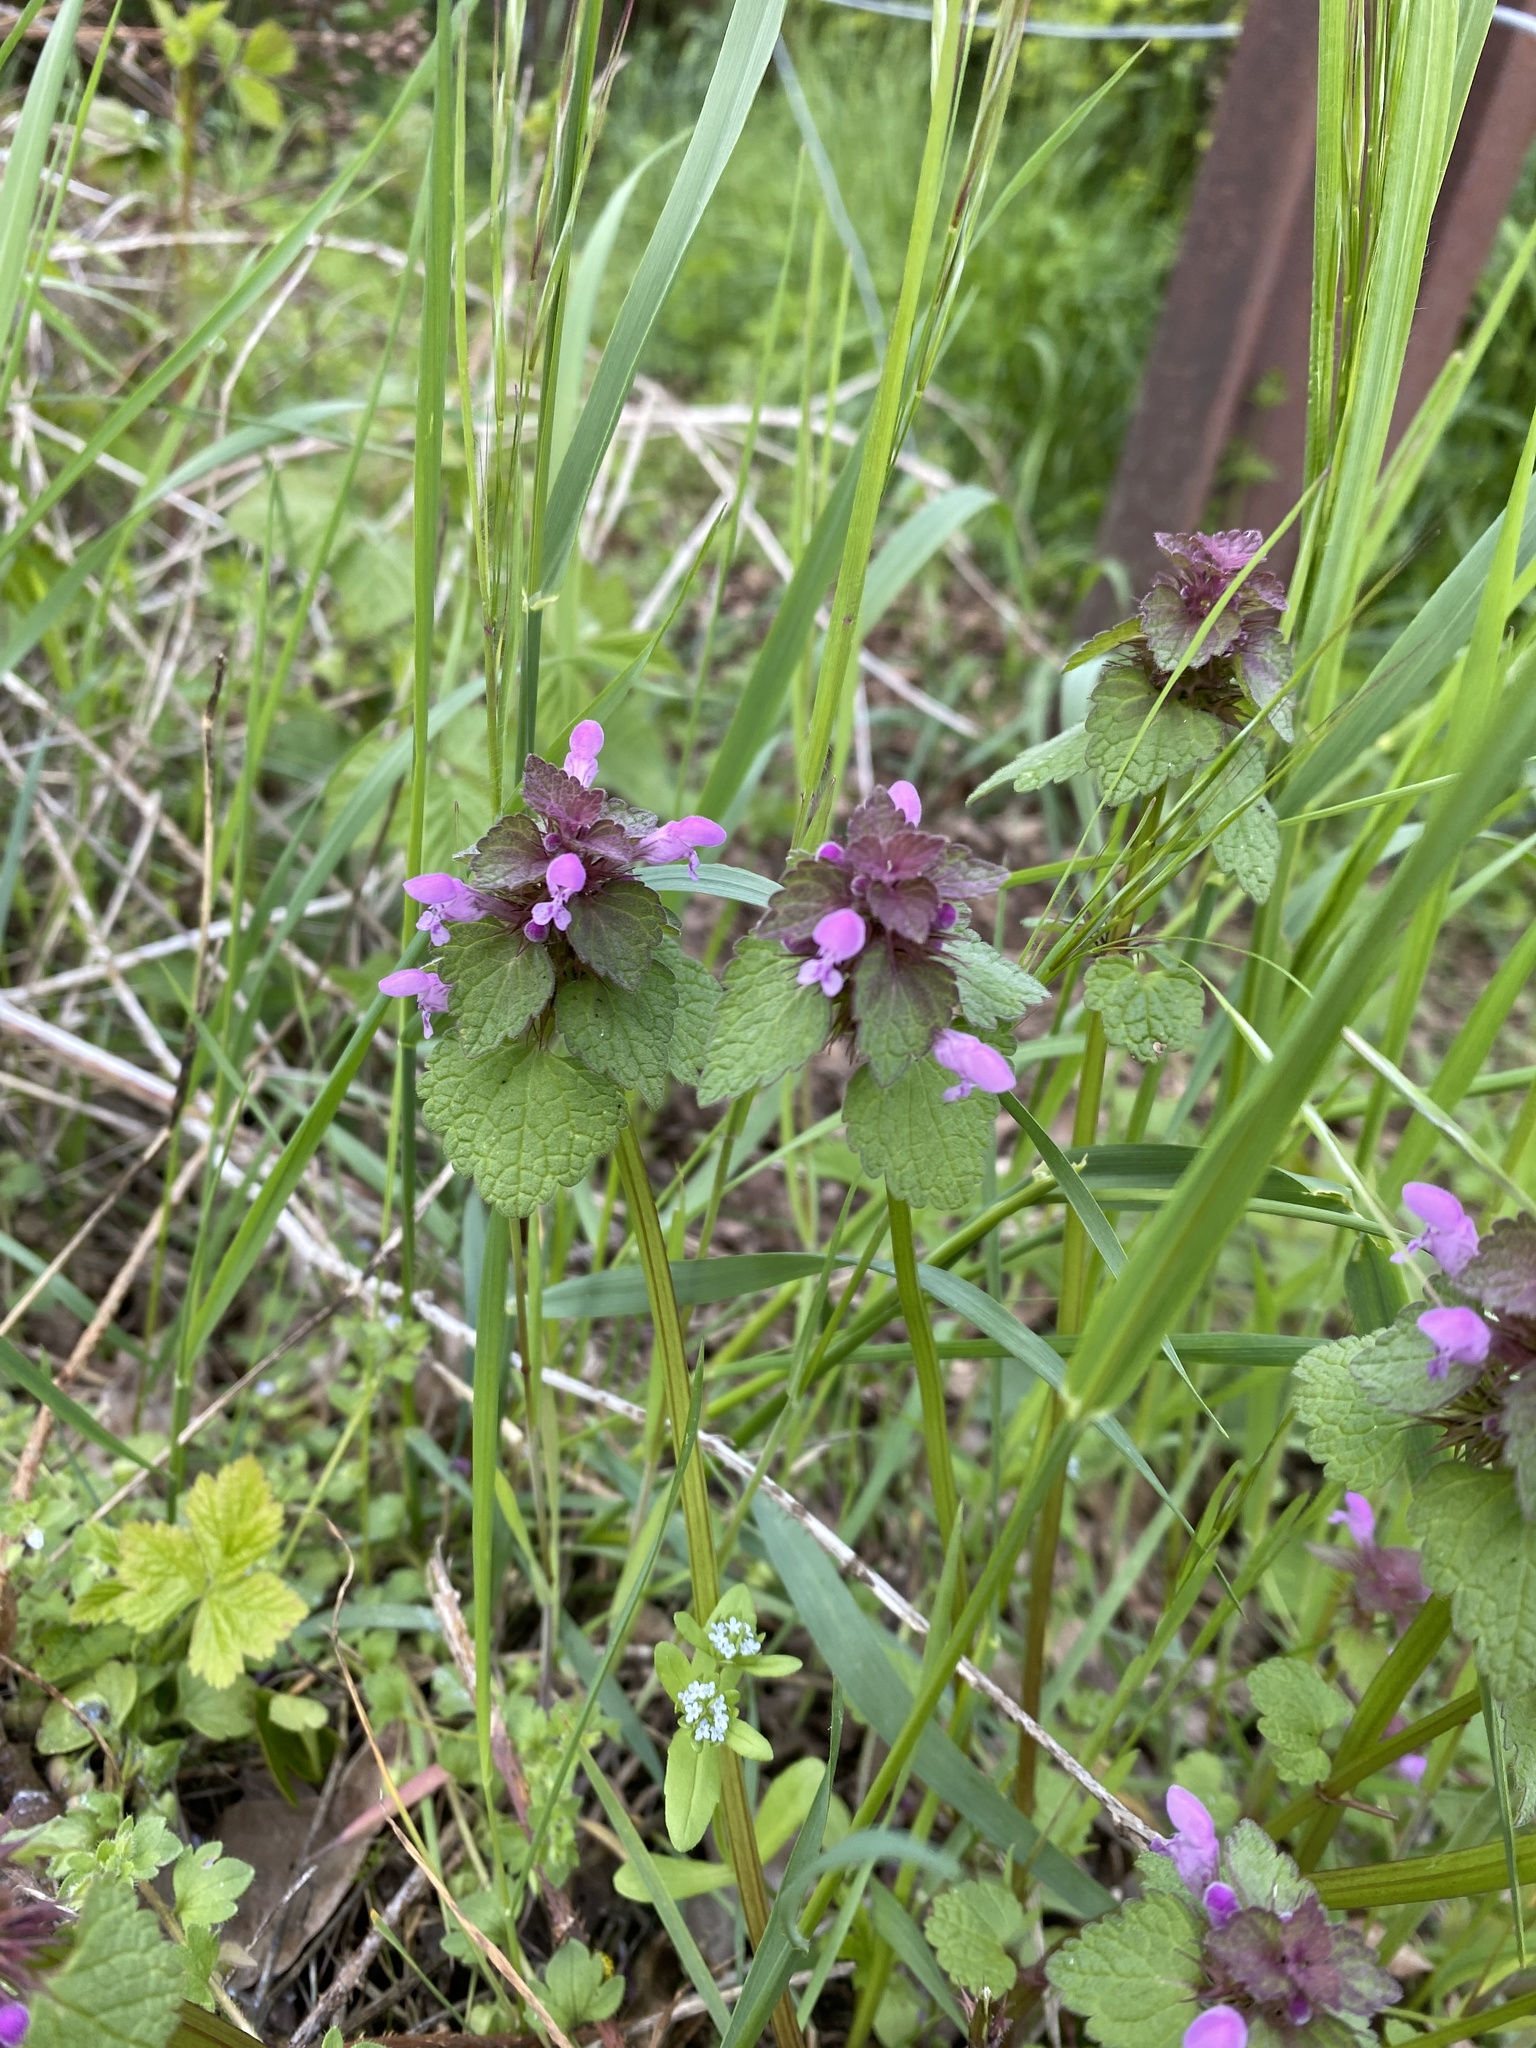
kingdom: Plantae
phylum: Tracheophyta
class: Magnoliopsida
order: Lamiales
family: Lamiaceae
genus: Lamium
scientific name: Lamium purpureum
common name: Red dead-nettle
